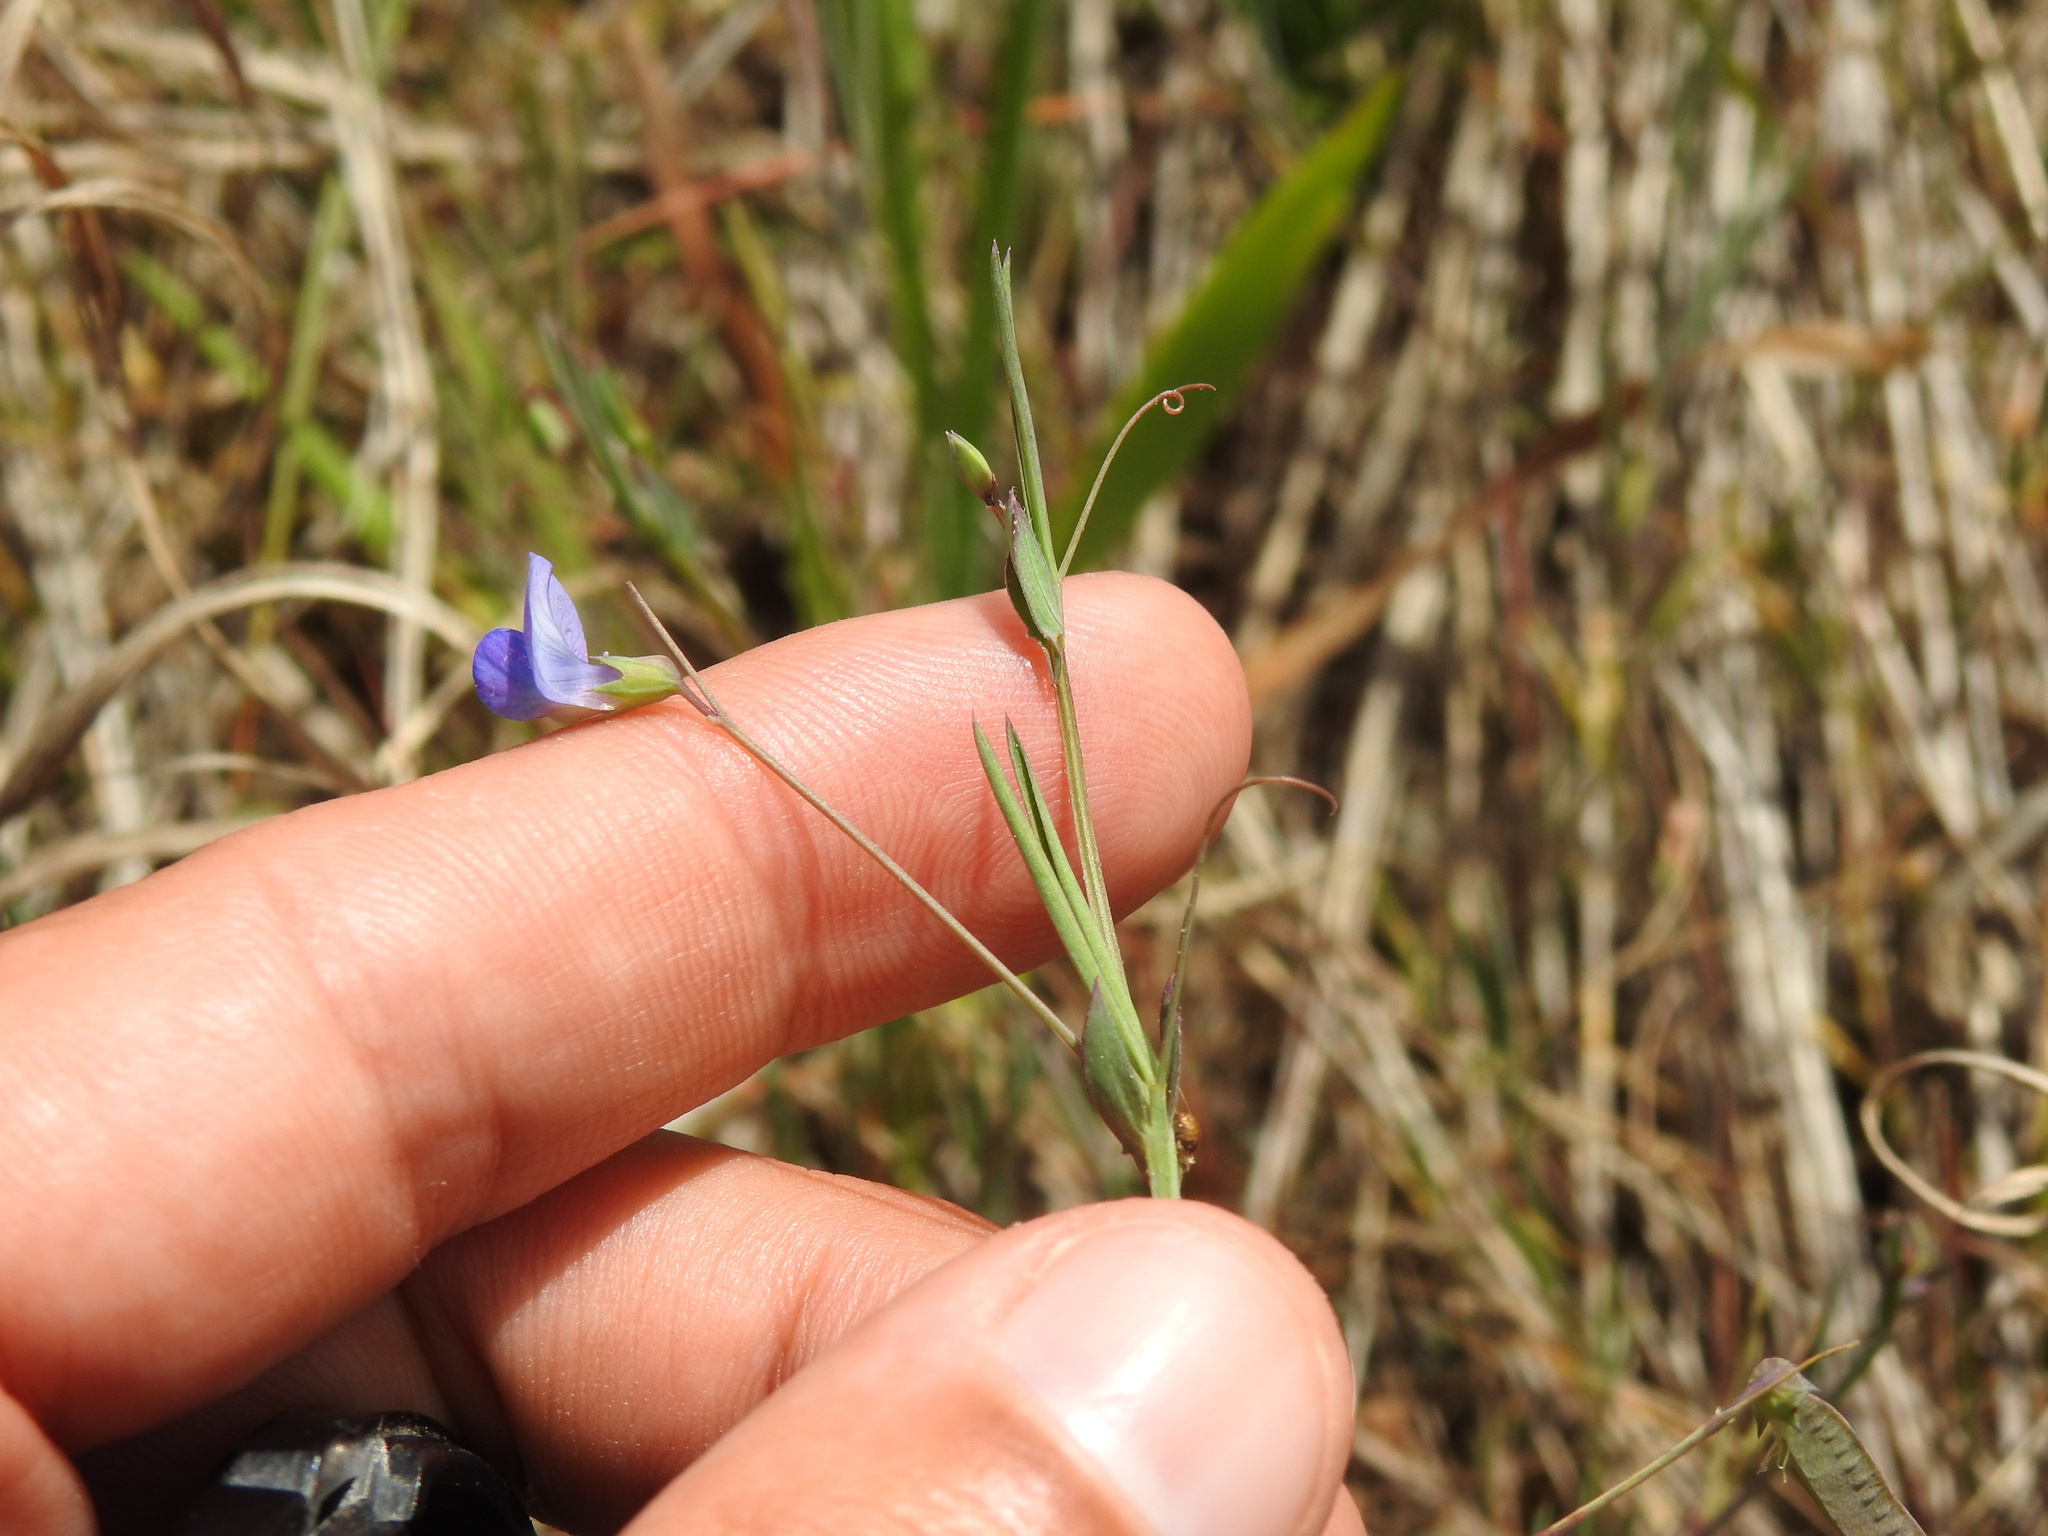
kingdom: Plantae
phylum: Tracheophyta
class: Magnoliopsida
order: Fabales
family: Fabaceae
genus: Lathyrus
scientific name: Lathyrus angulatus
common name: Angular pea
